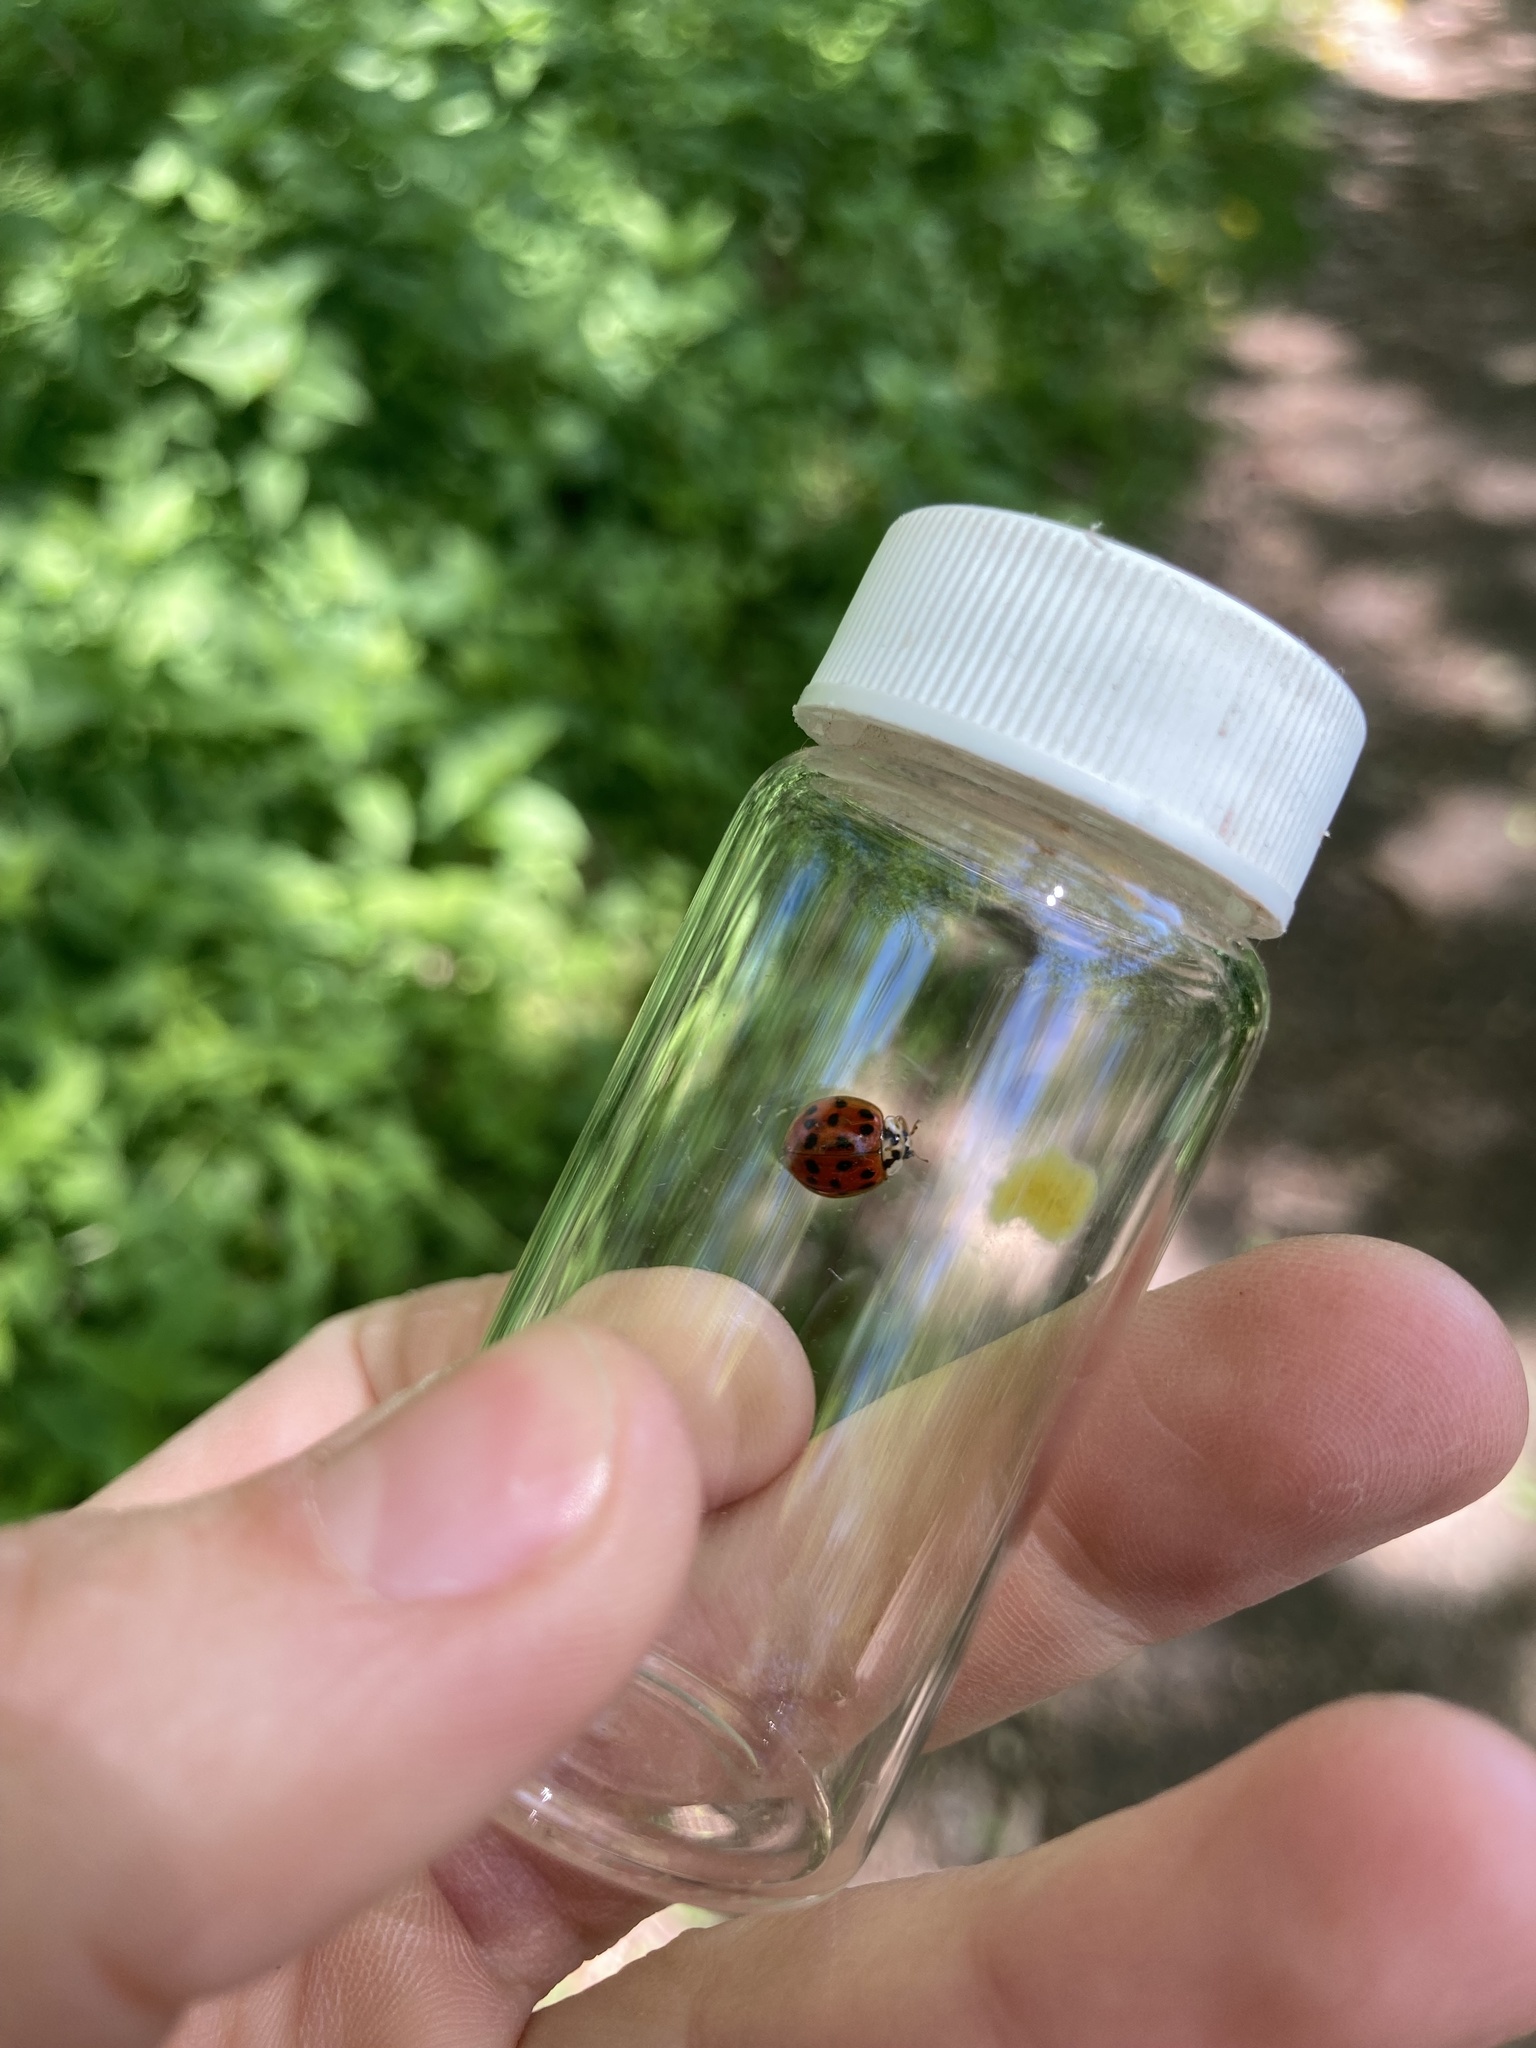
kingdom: Animalia
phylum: Arthropoda
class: Insecta
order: Coleoptera
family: Coccinellidae
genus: Harmonia
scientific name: Harmonia axyridis
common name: Harlequin ladybird
